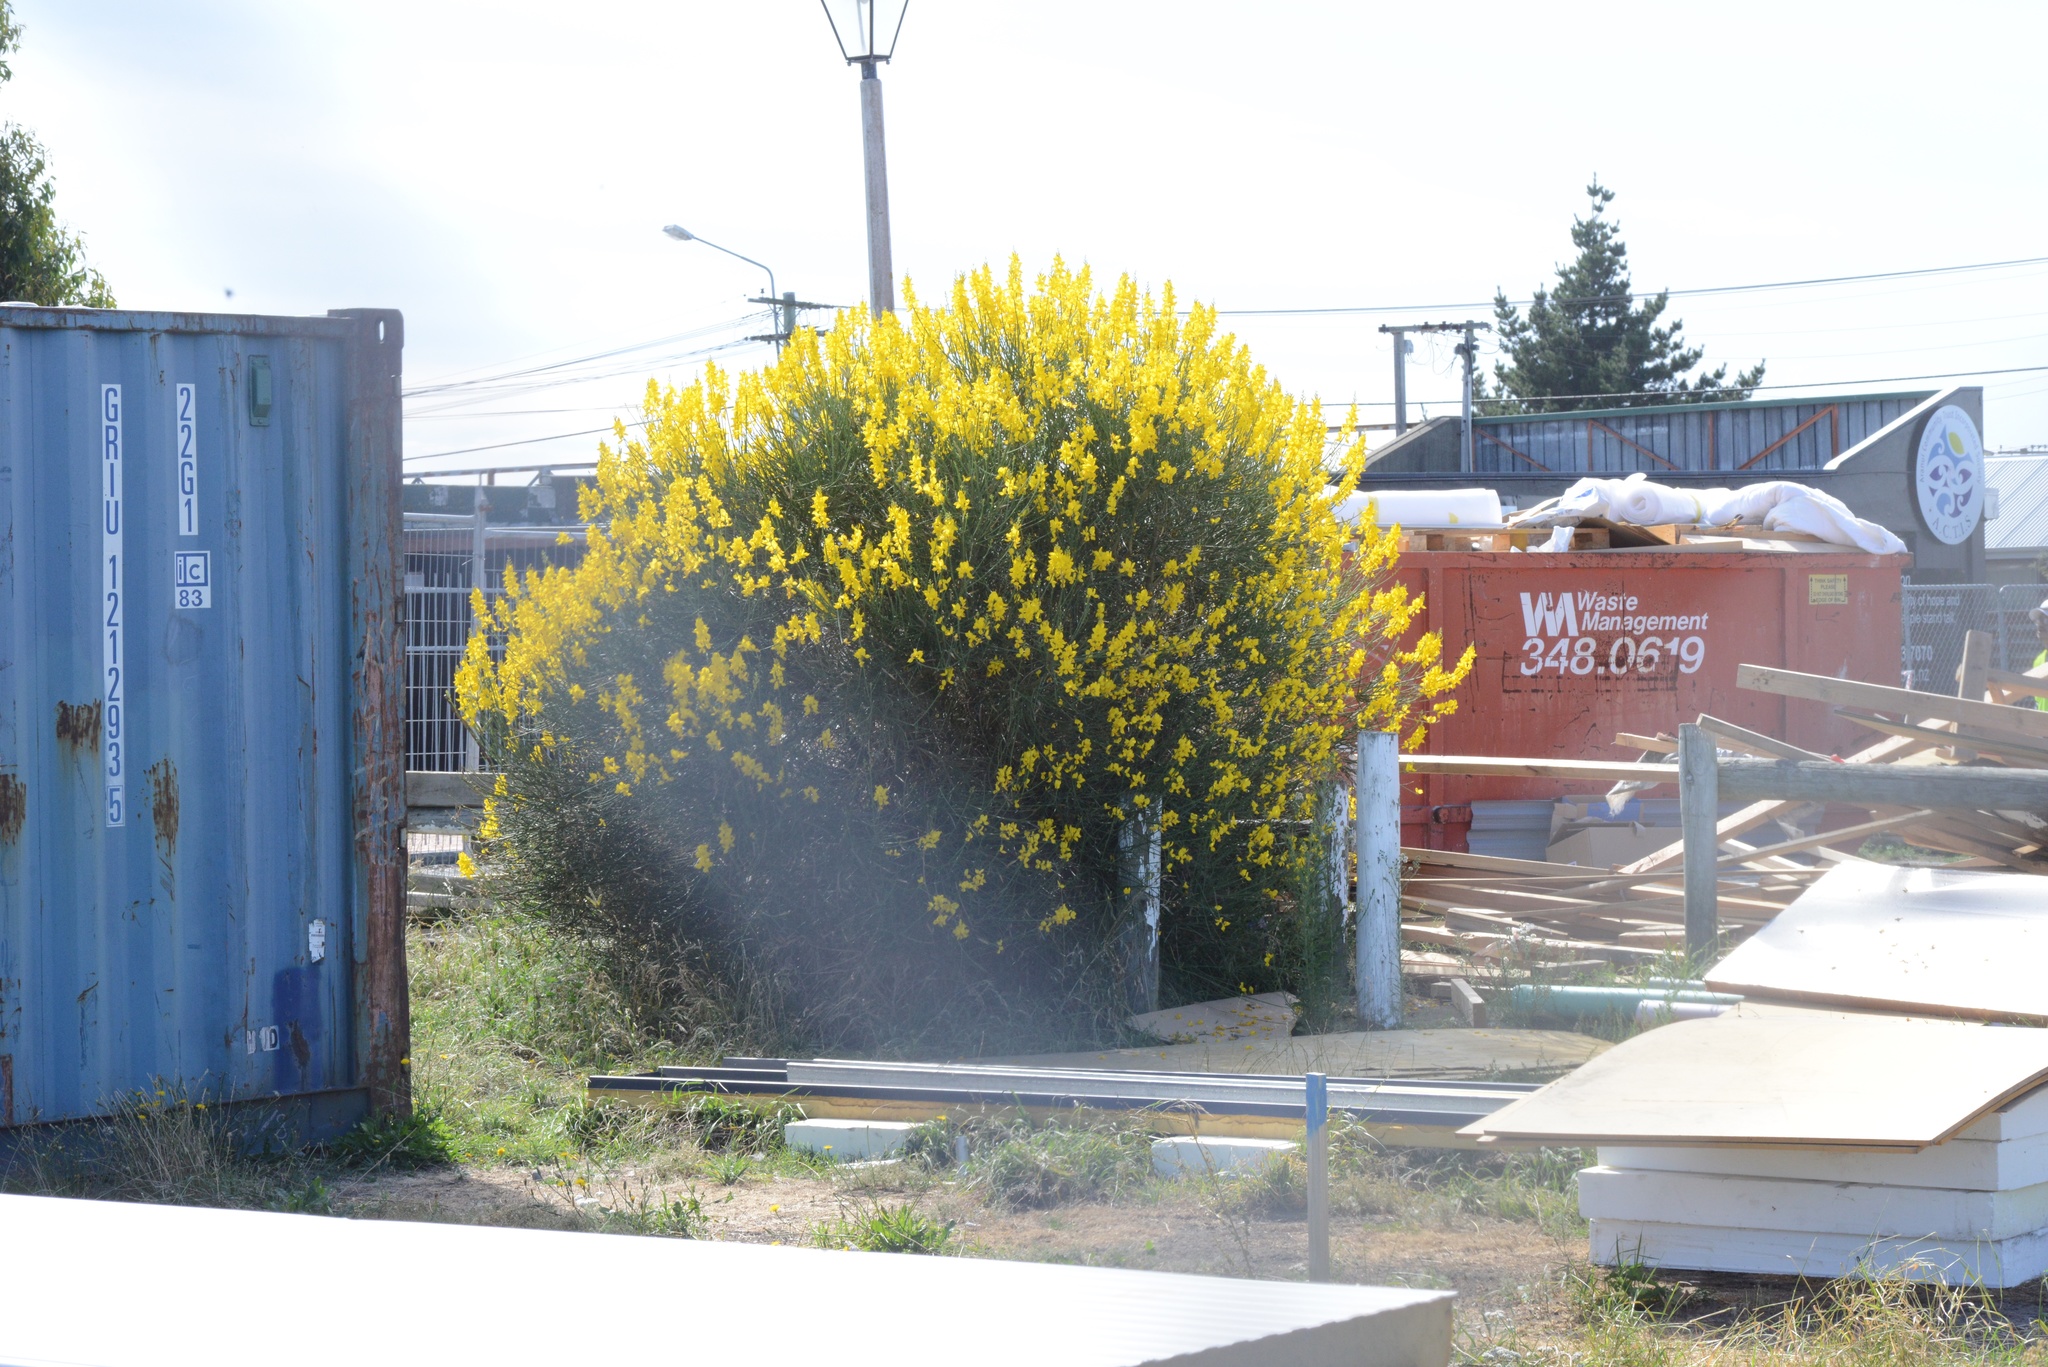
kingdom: Plantae
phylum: Tracheophyta
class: Magnoliopsida
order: Fabales
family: Fabaceae
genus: Spartium
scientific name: Spartium junceum
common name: Spanish broom
